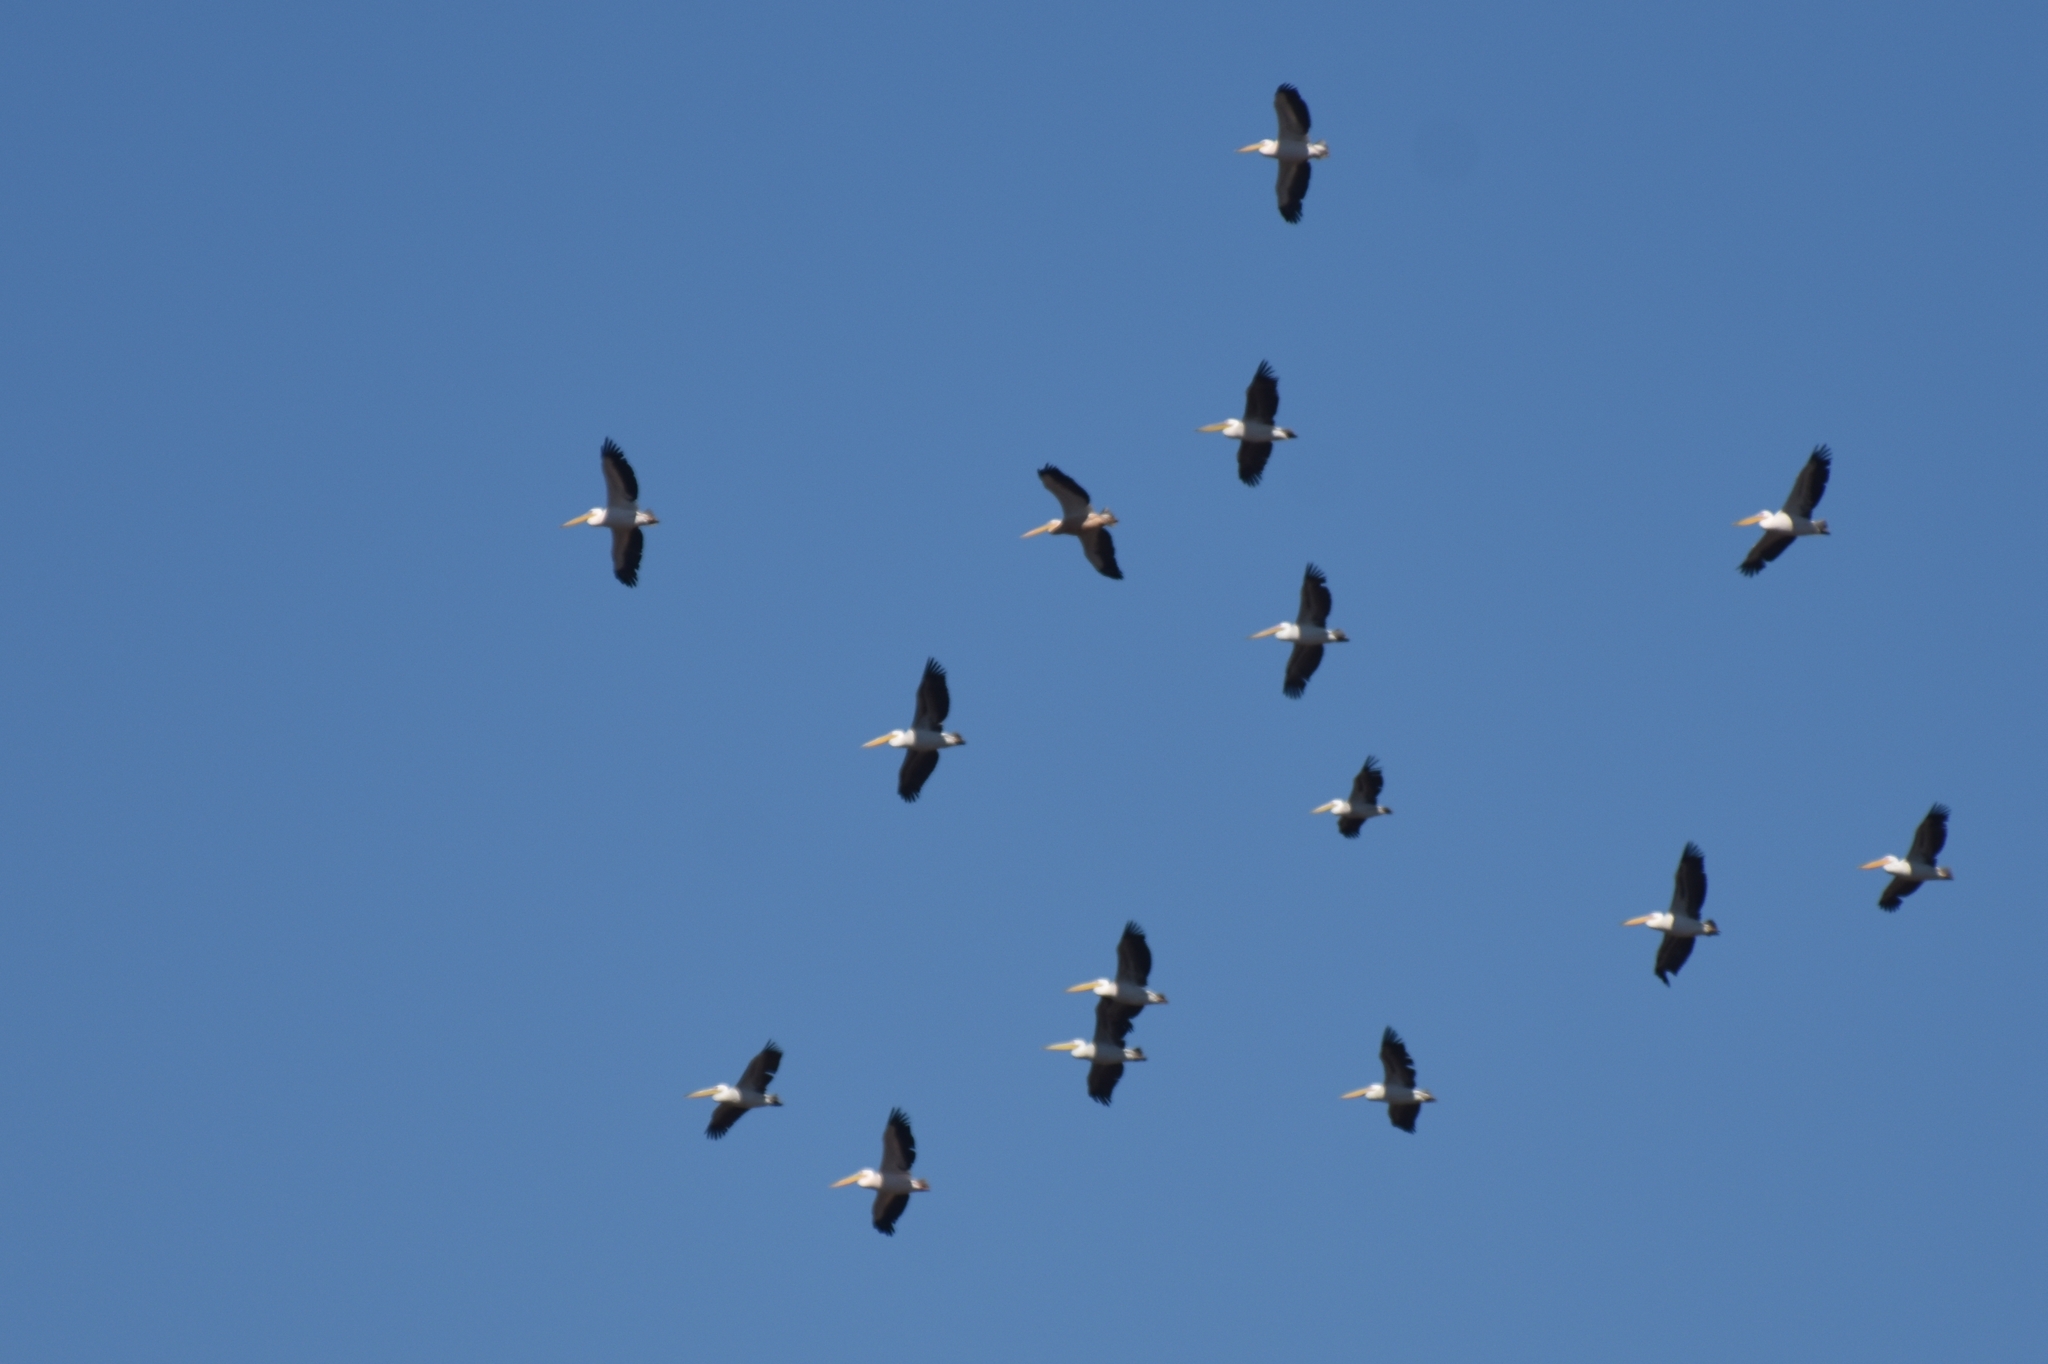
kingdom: Animalia
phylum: Chordata
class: Aves
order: Pelecaniformes
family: Pelecanidae
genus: Pelecanus
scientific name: Pelecanus onocrotalus
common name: Great white pelican
